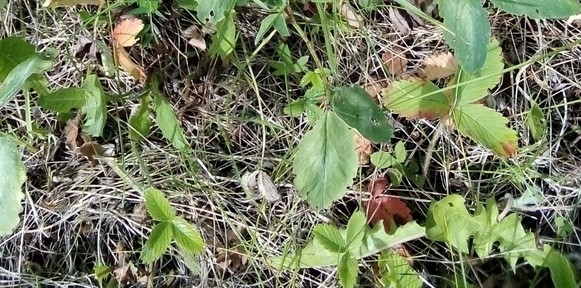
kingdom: Plantae
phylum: Tracheophyta
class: Magnoliopsida
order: Rosales
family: Rosaceae
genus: Fragaria
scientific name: Fragaria viridis
